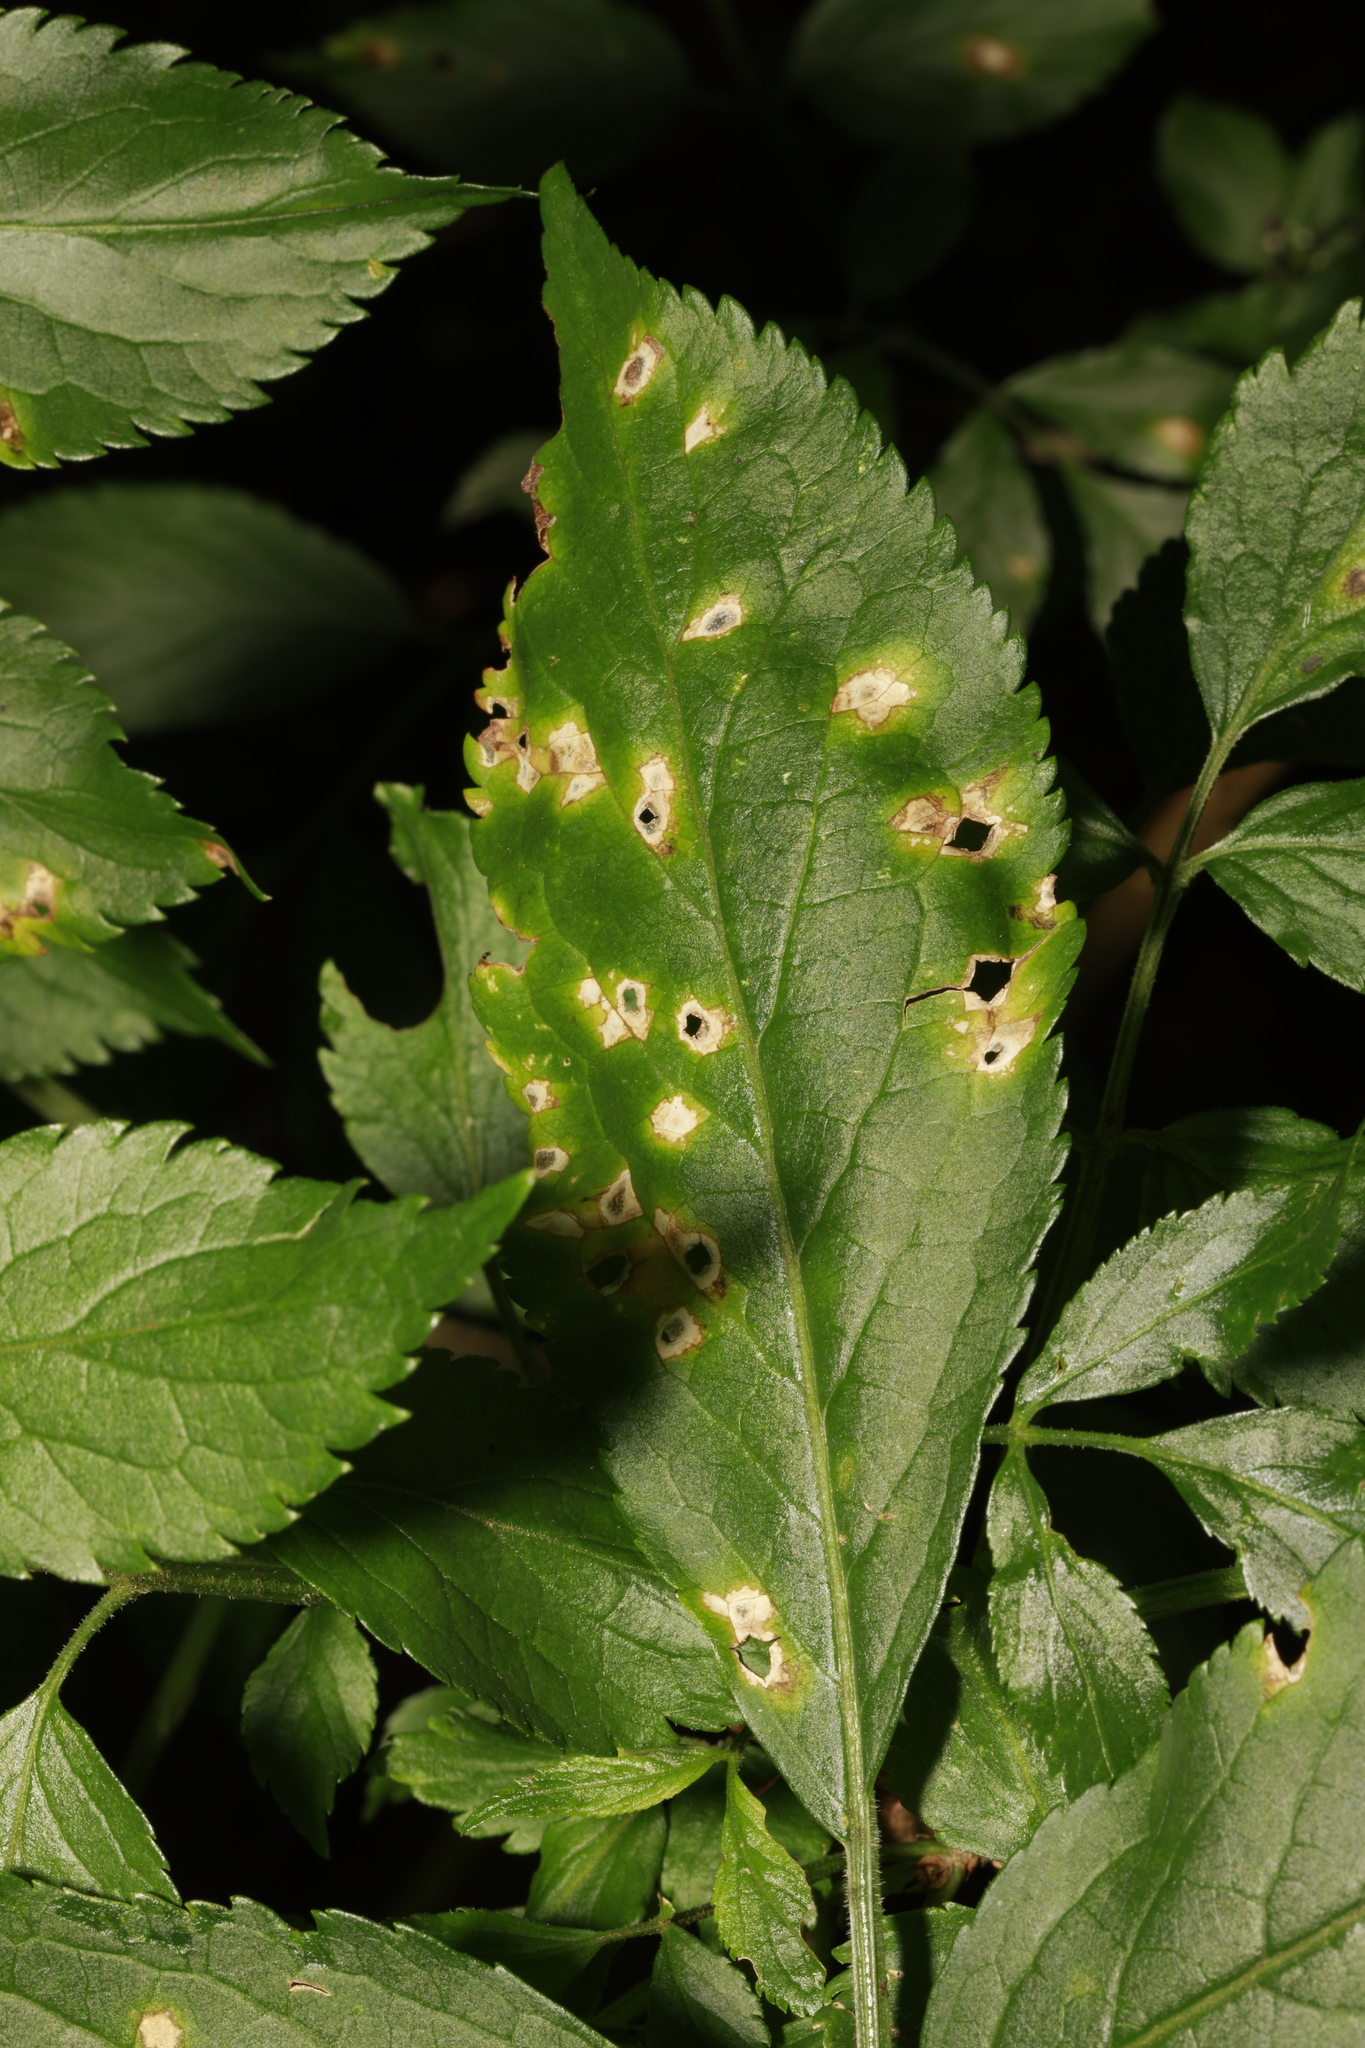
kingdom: Plantae
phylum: Tracheophyta
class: Magnoliopsida
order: Dipsacales
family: Viburnaceae
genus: Sambucus
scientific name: Sambucus nigra
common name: Elder
